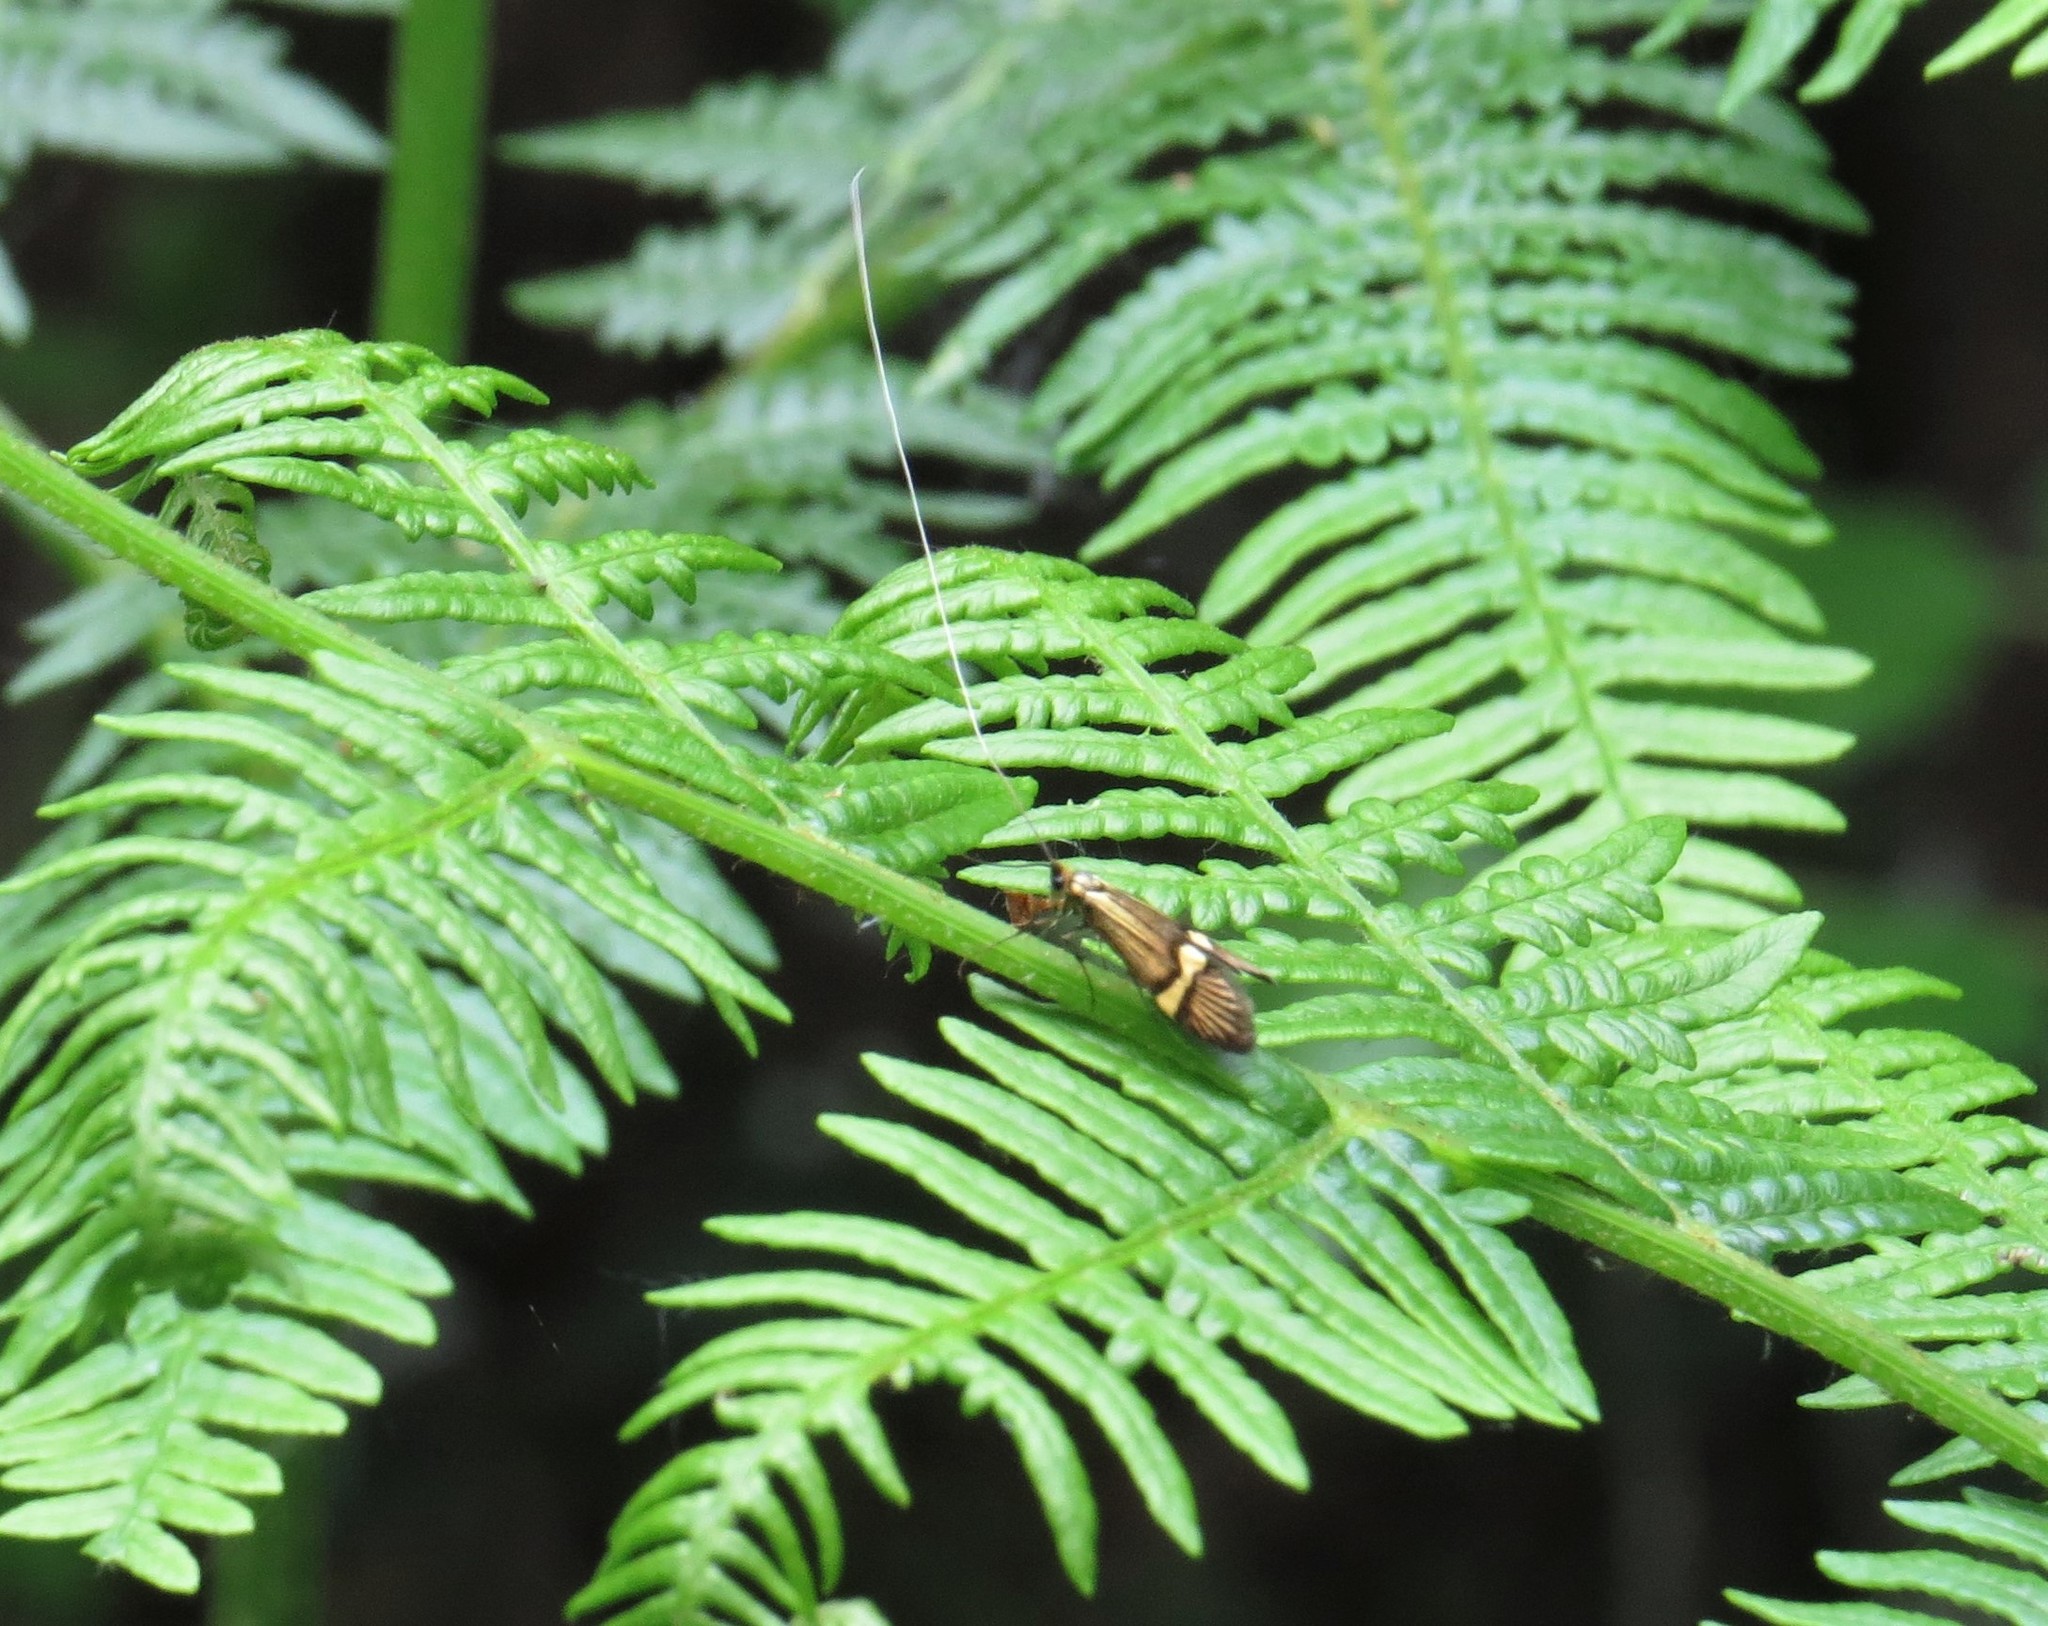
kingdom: Animalia
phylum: Arthropoda
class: Insecta
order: Lepidoptera
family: Adelidae
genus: Nemophora
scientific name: Nemophora degeerella
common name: Yellow-barred long-horn
